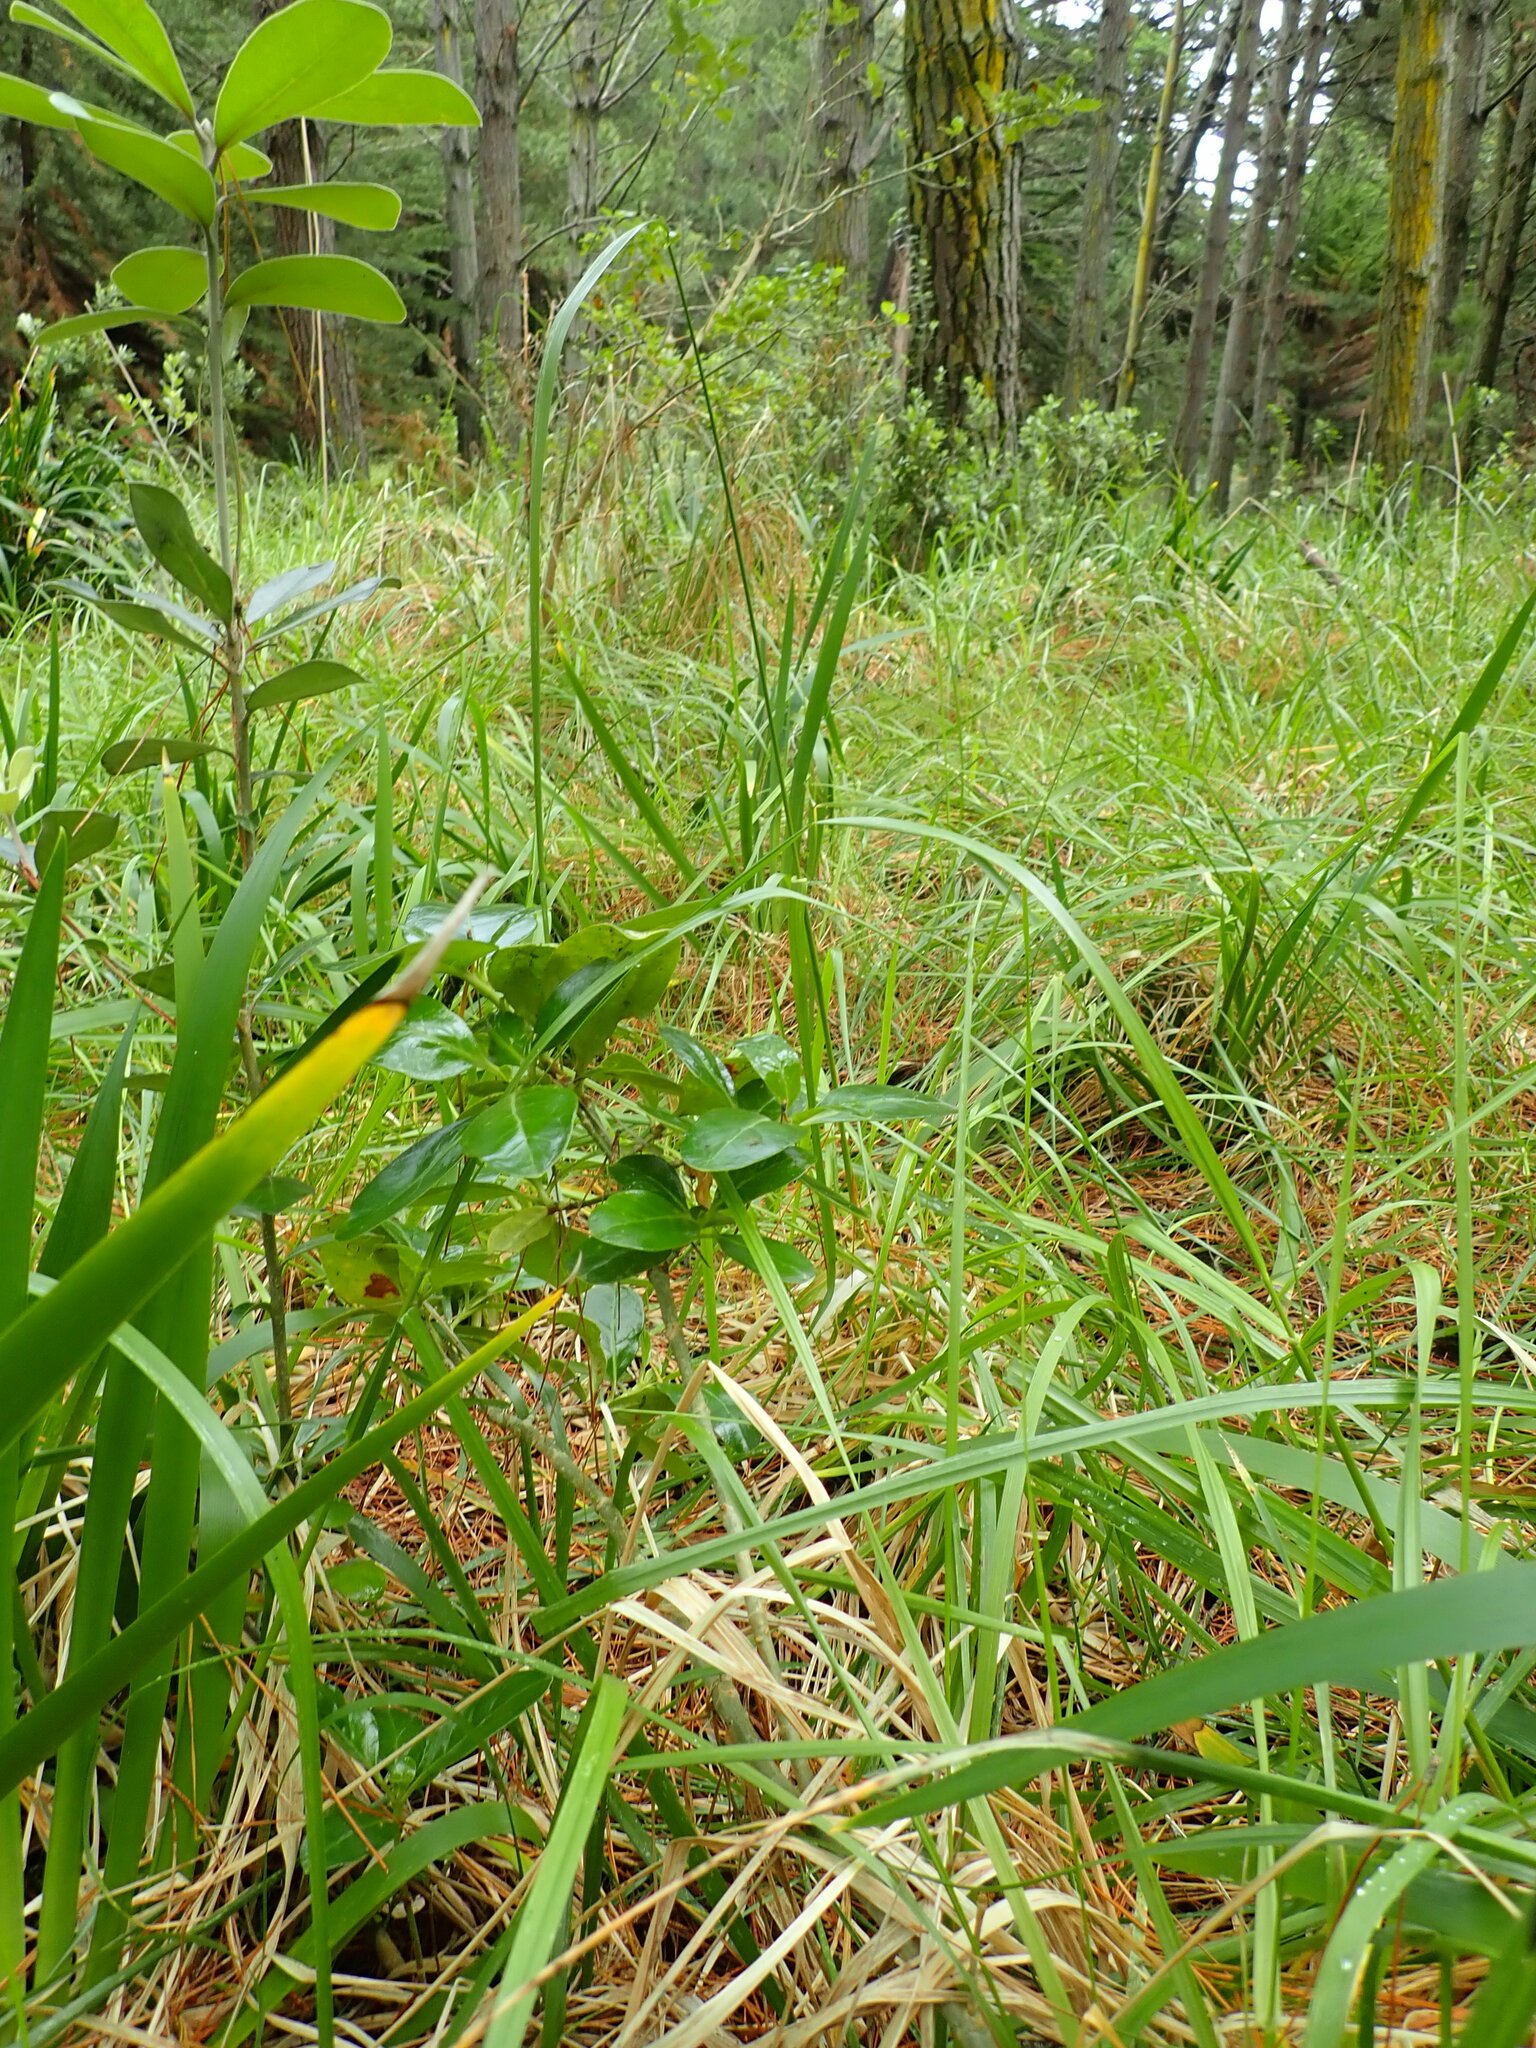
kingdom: Plantae
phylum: Tracheophyta
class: Magnoliopsida
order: Gentianales
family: Rubiaceae
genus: Coprosma
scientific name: Coprosma repens
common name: Tree bedstraw
